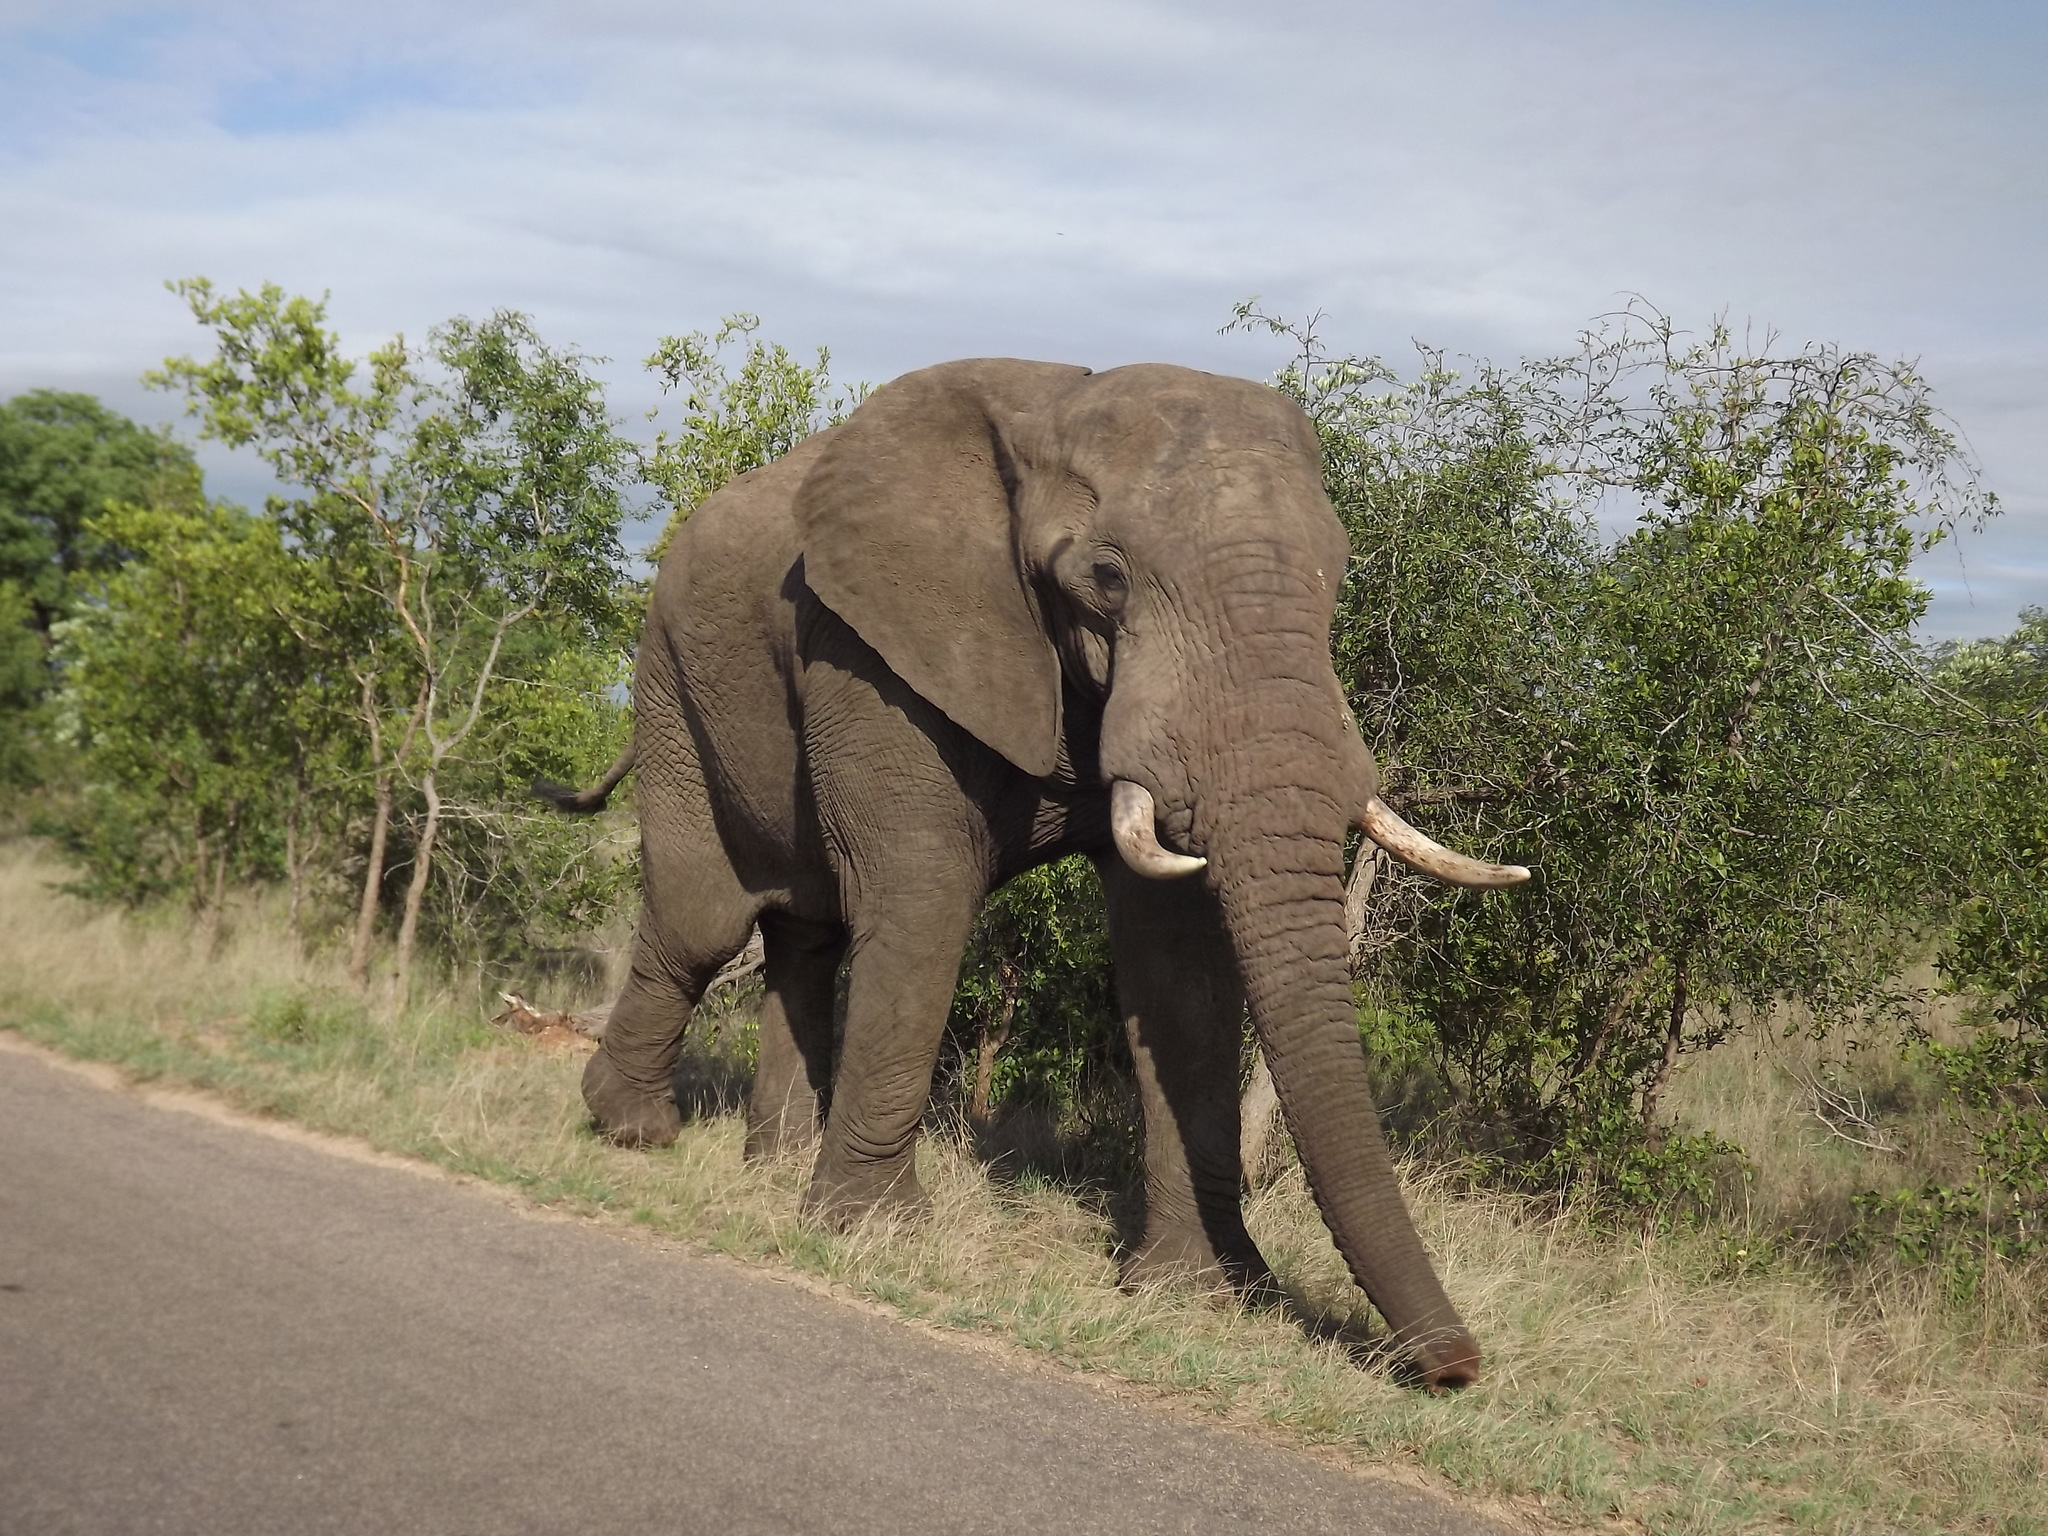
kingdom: Animalia
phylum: Chordata
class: Mammalia
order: Proboscidea
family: Elephantidae
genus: Loxodonta
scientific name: Loxodonta africana
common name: African elephant
